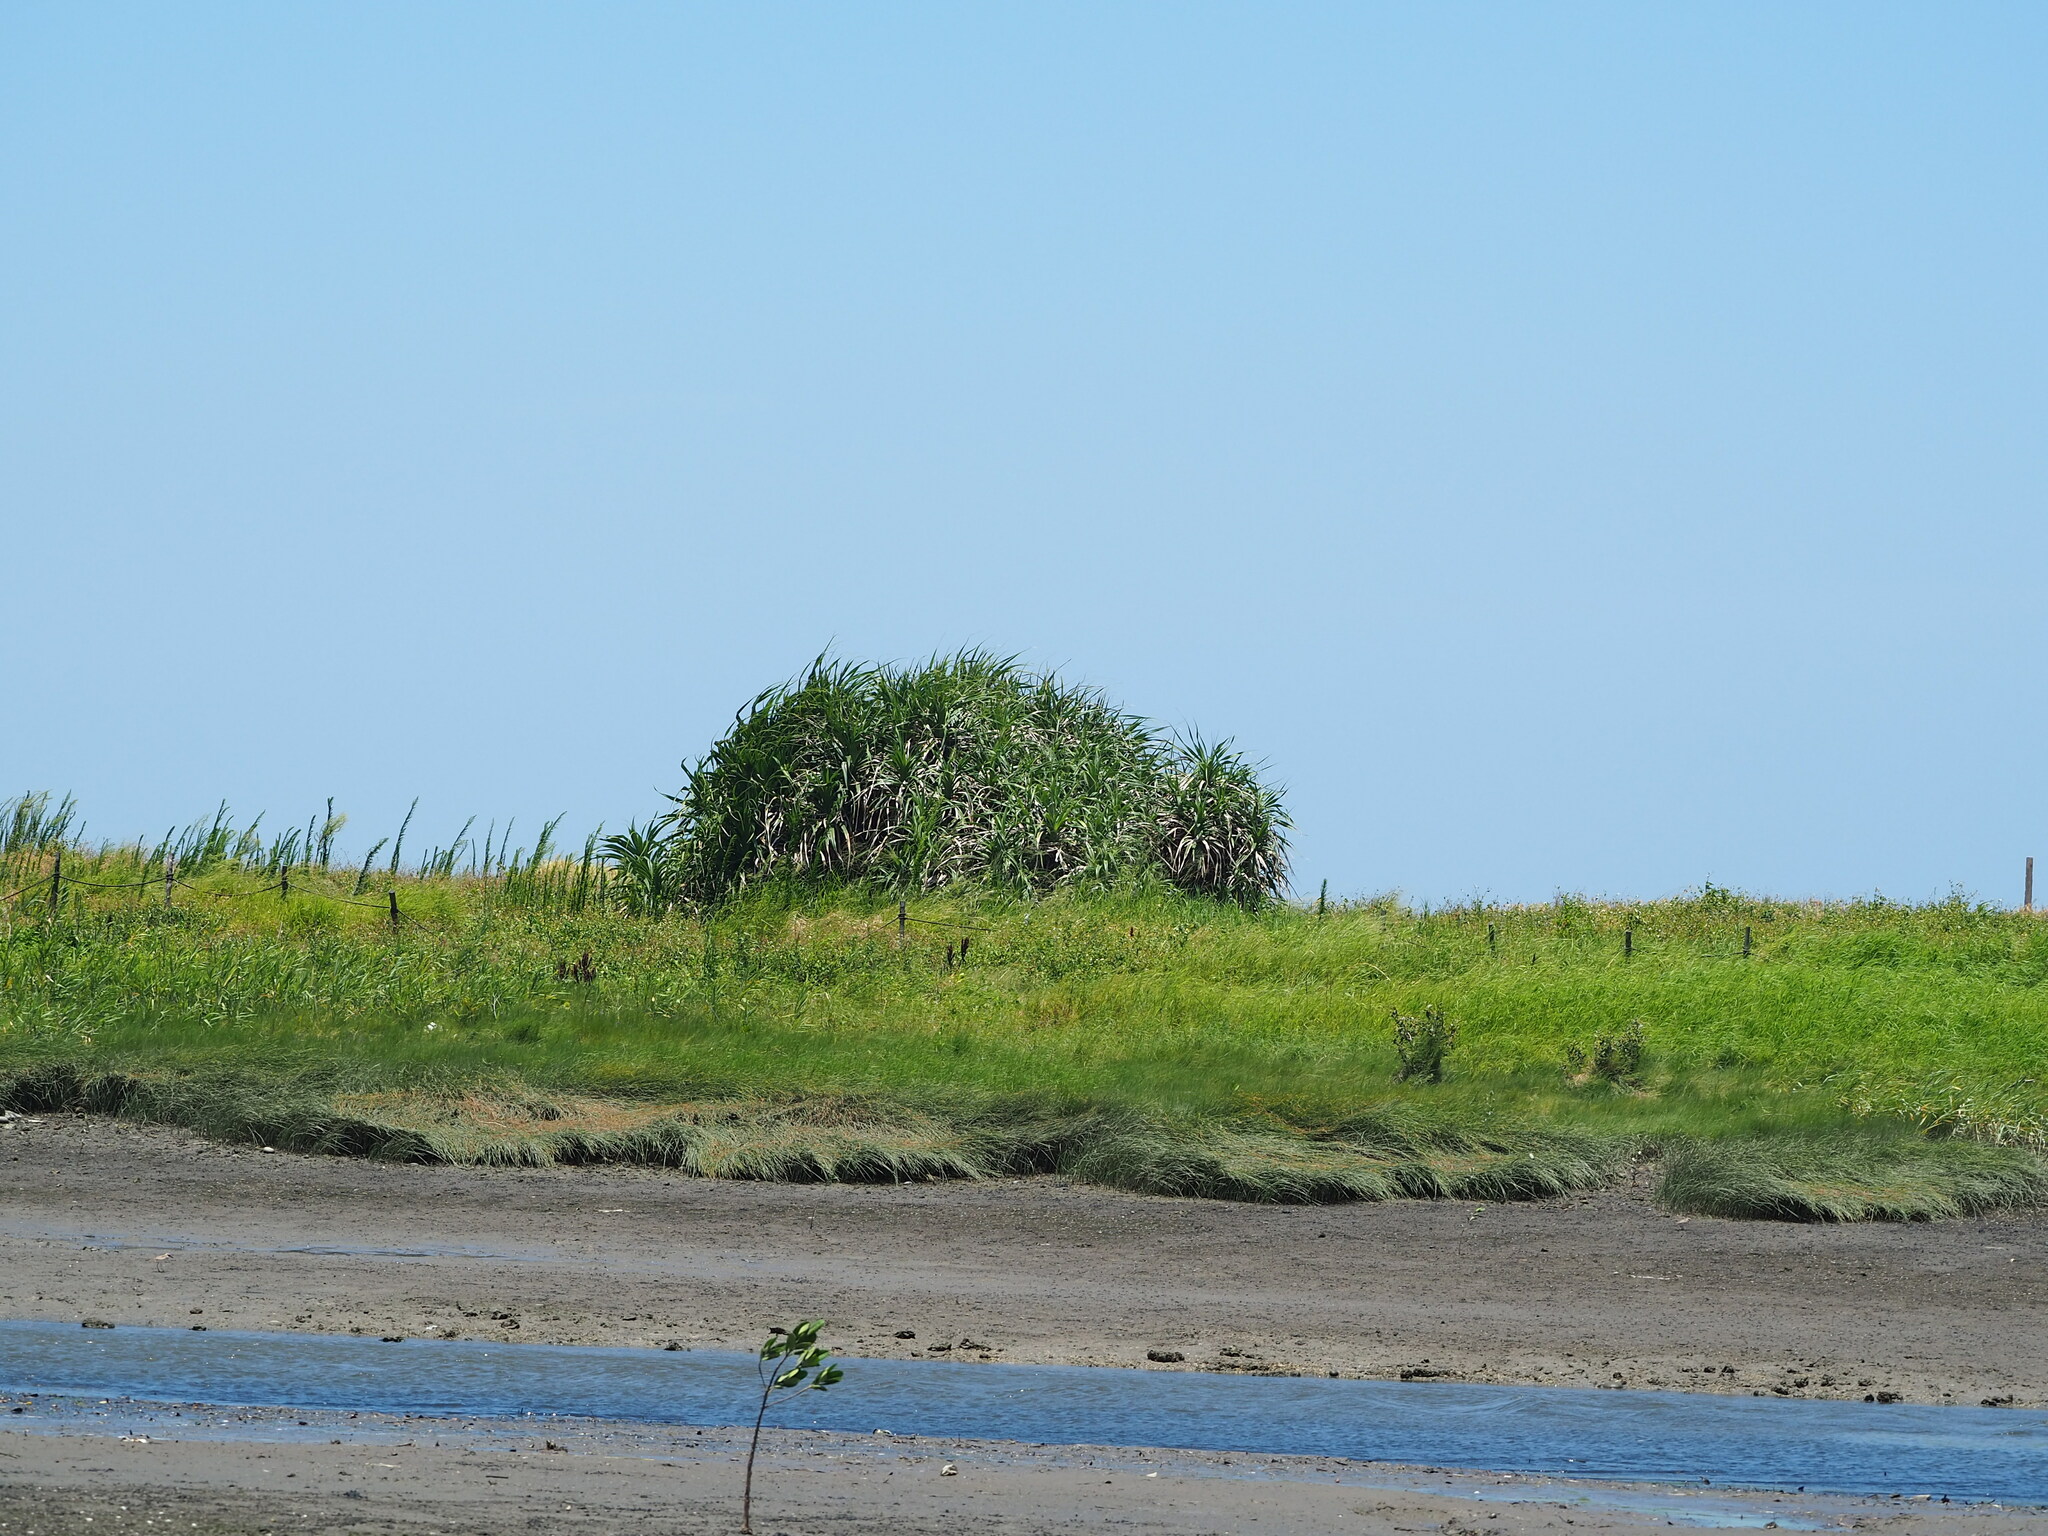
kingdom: Plantae
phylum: Tracheophyta
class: Liliopsida
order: Pandanales
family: Pandanaceae
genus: Pandanus
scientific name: Pandanus odorifer
